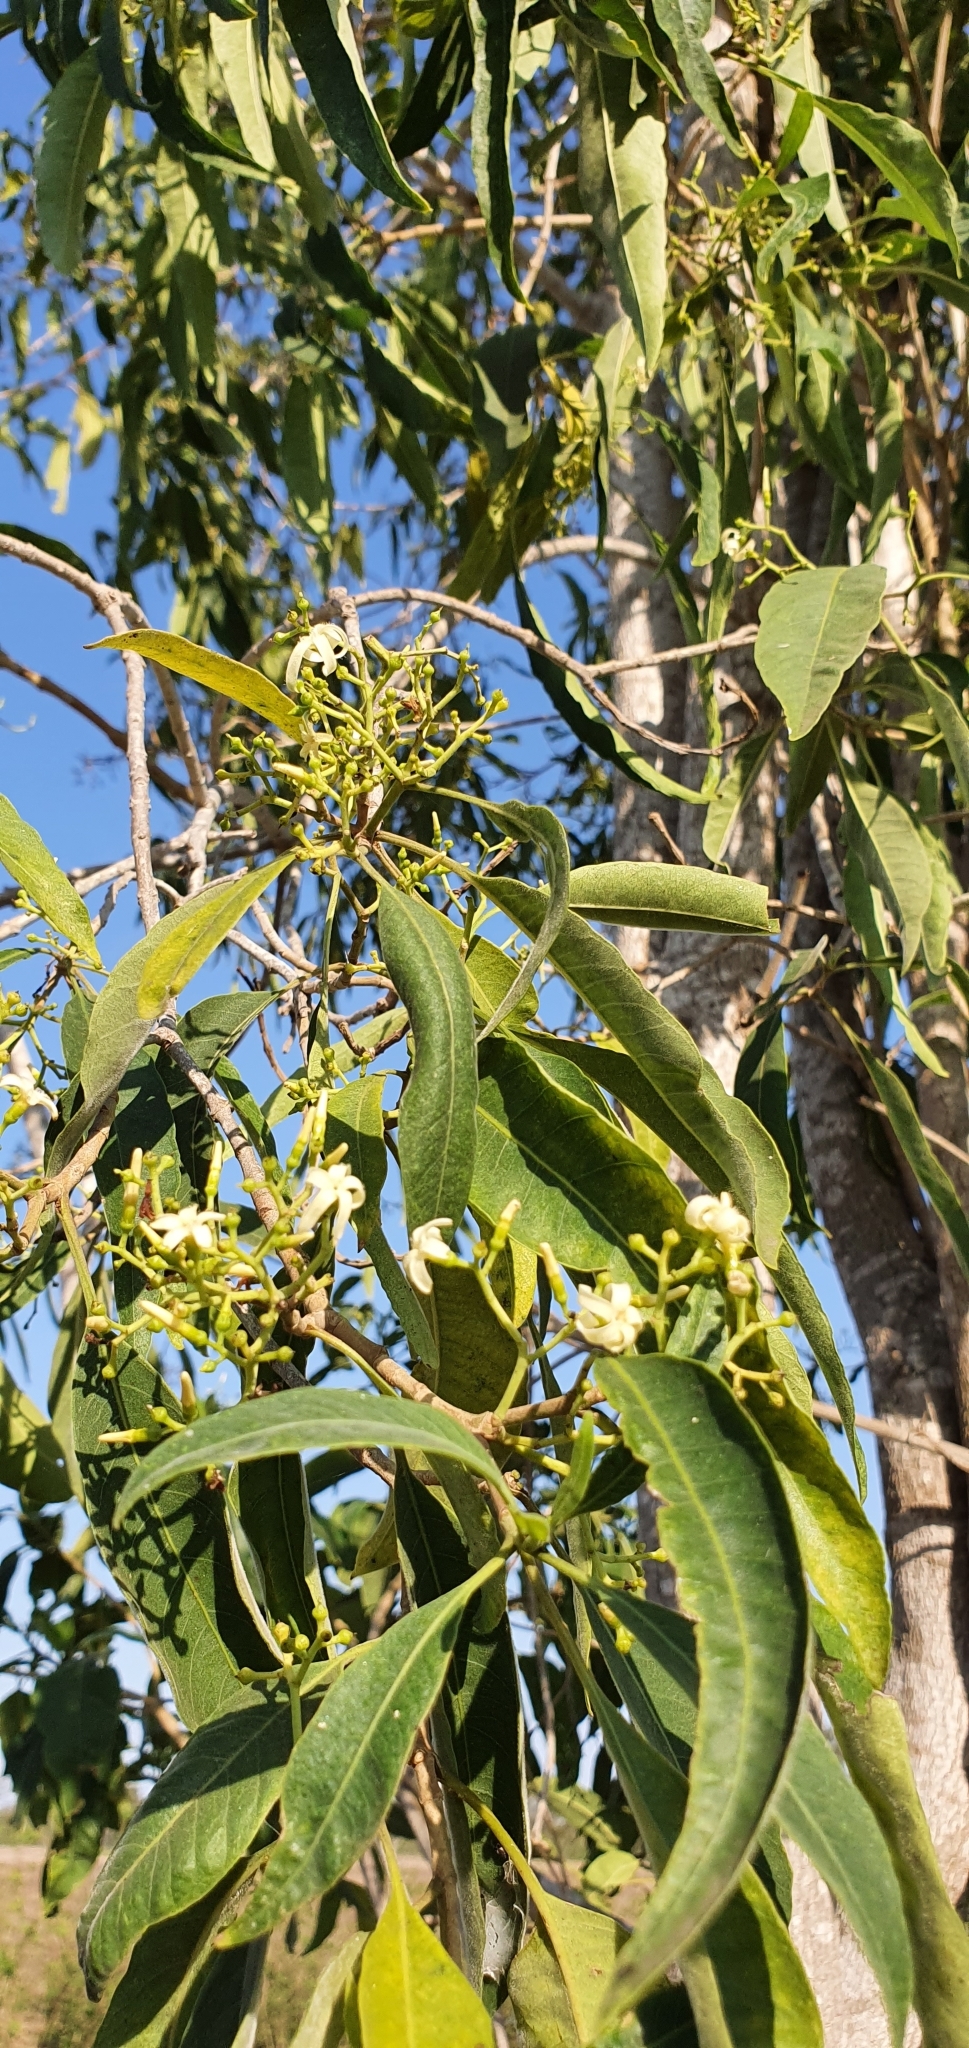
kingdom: Plantae
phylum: Tracheophyta
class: Magnoliopsida
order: Gentianales
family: Apocynaceae
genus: Alstonia
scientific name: Alstonia mollis
